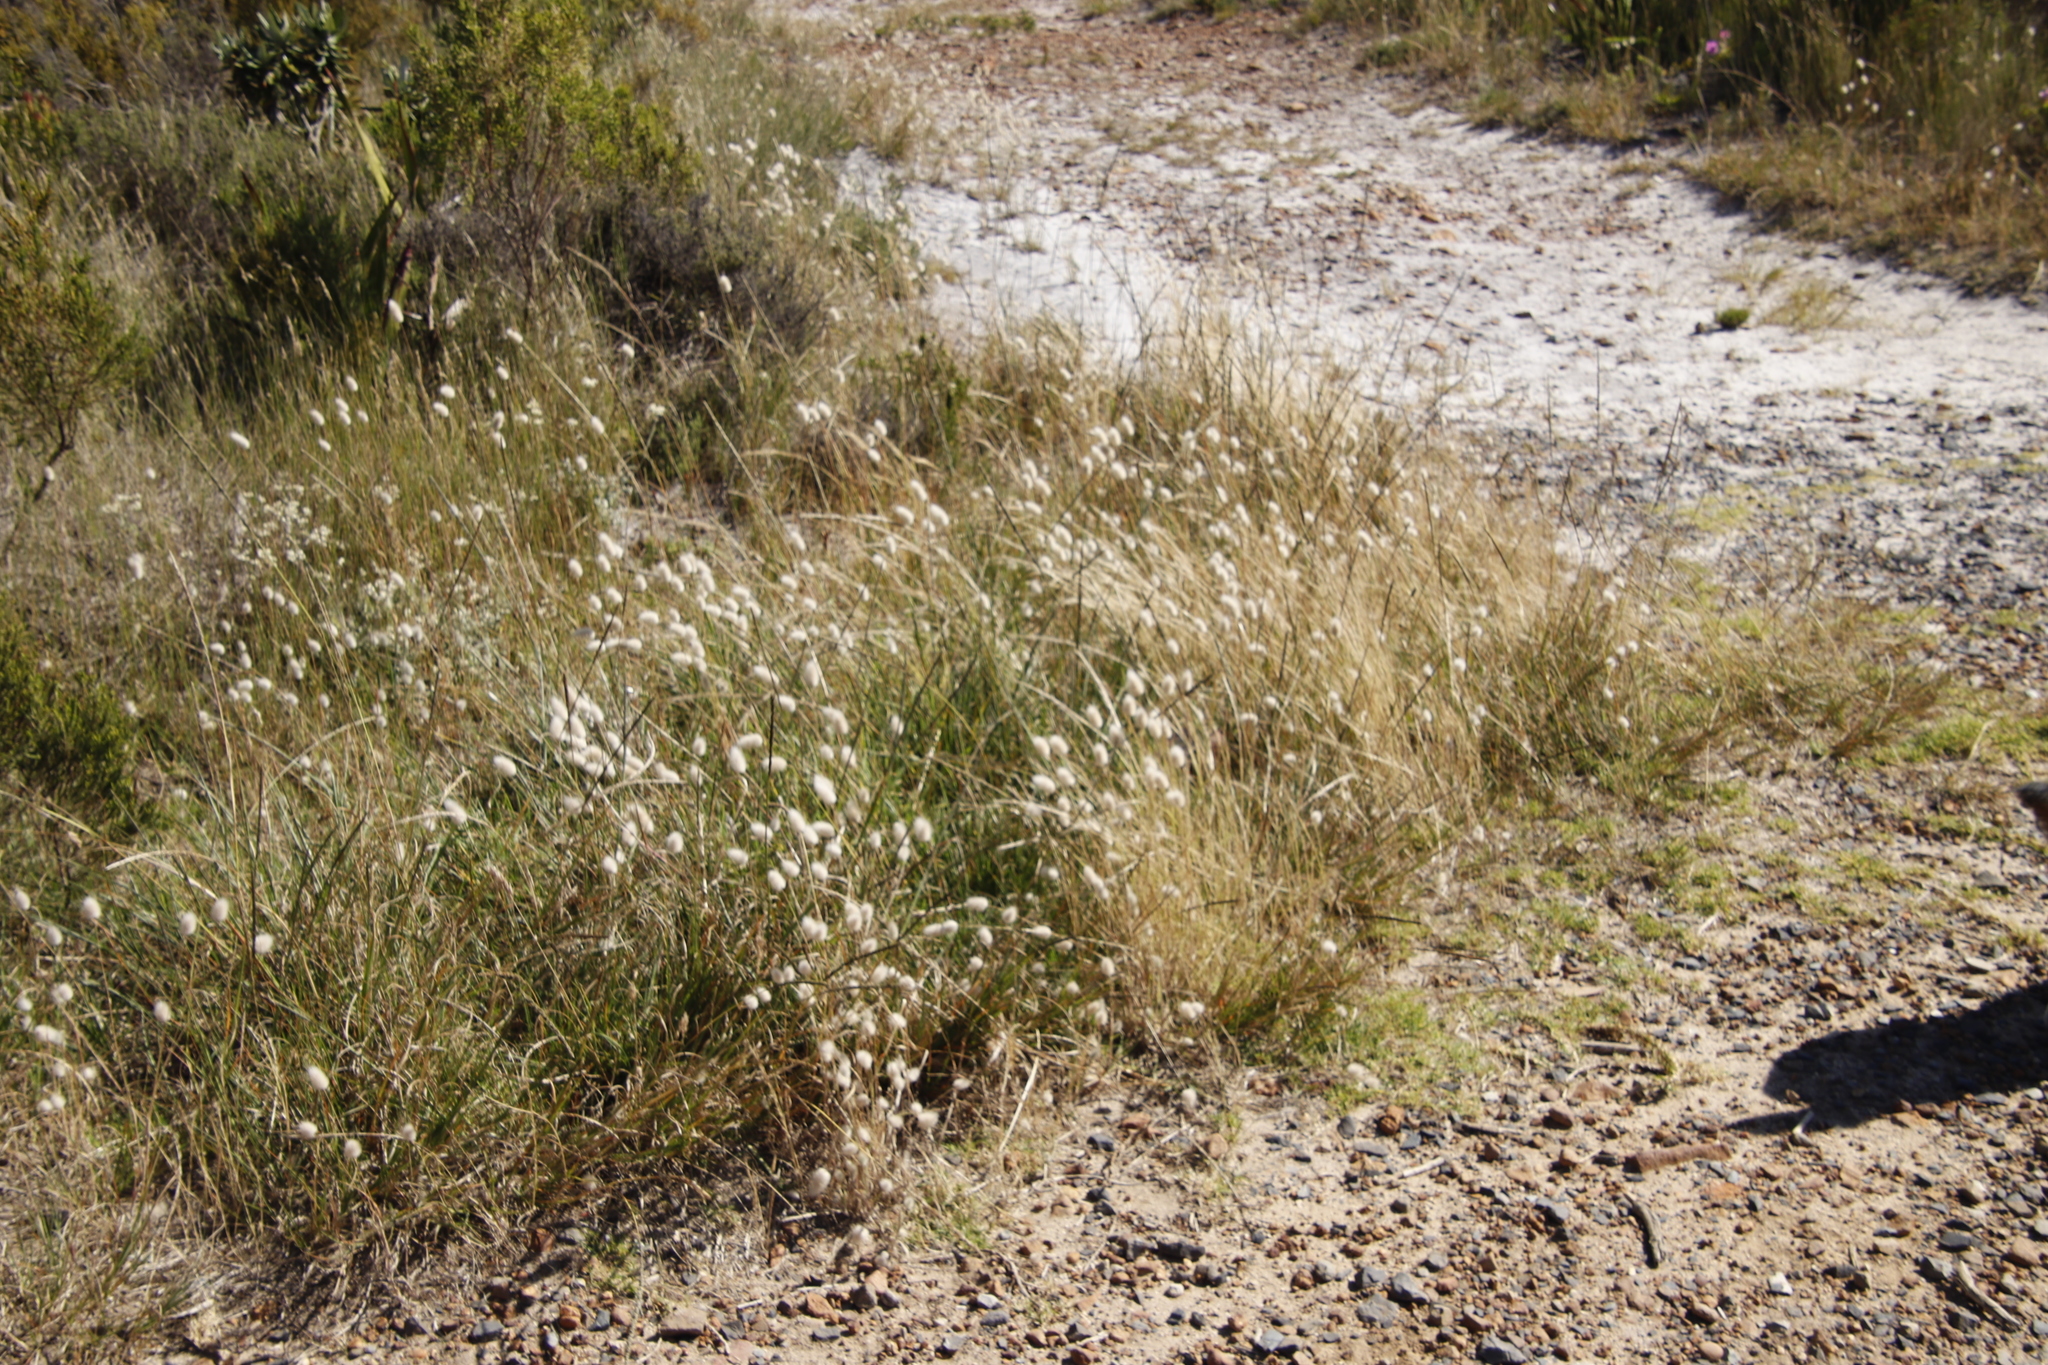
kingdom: Plantae
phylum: Tracheophyta
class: Liliopsida
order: Poales
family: Poaceae
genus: Lagurus
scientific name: Lagurus ovatus
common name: Hare's-tail
